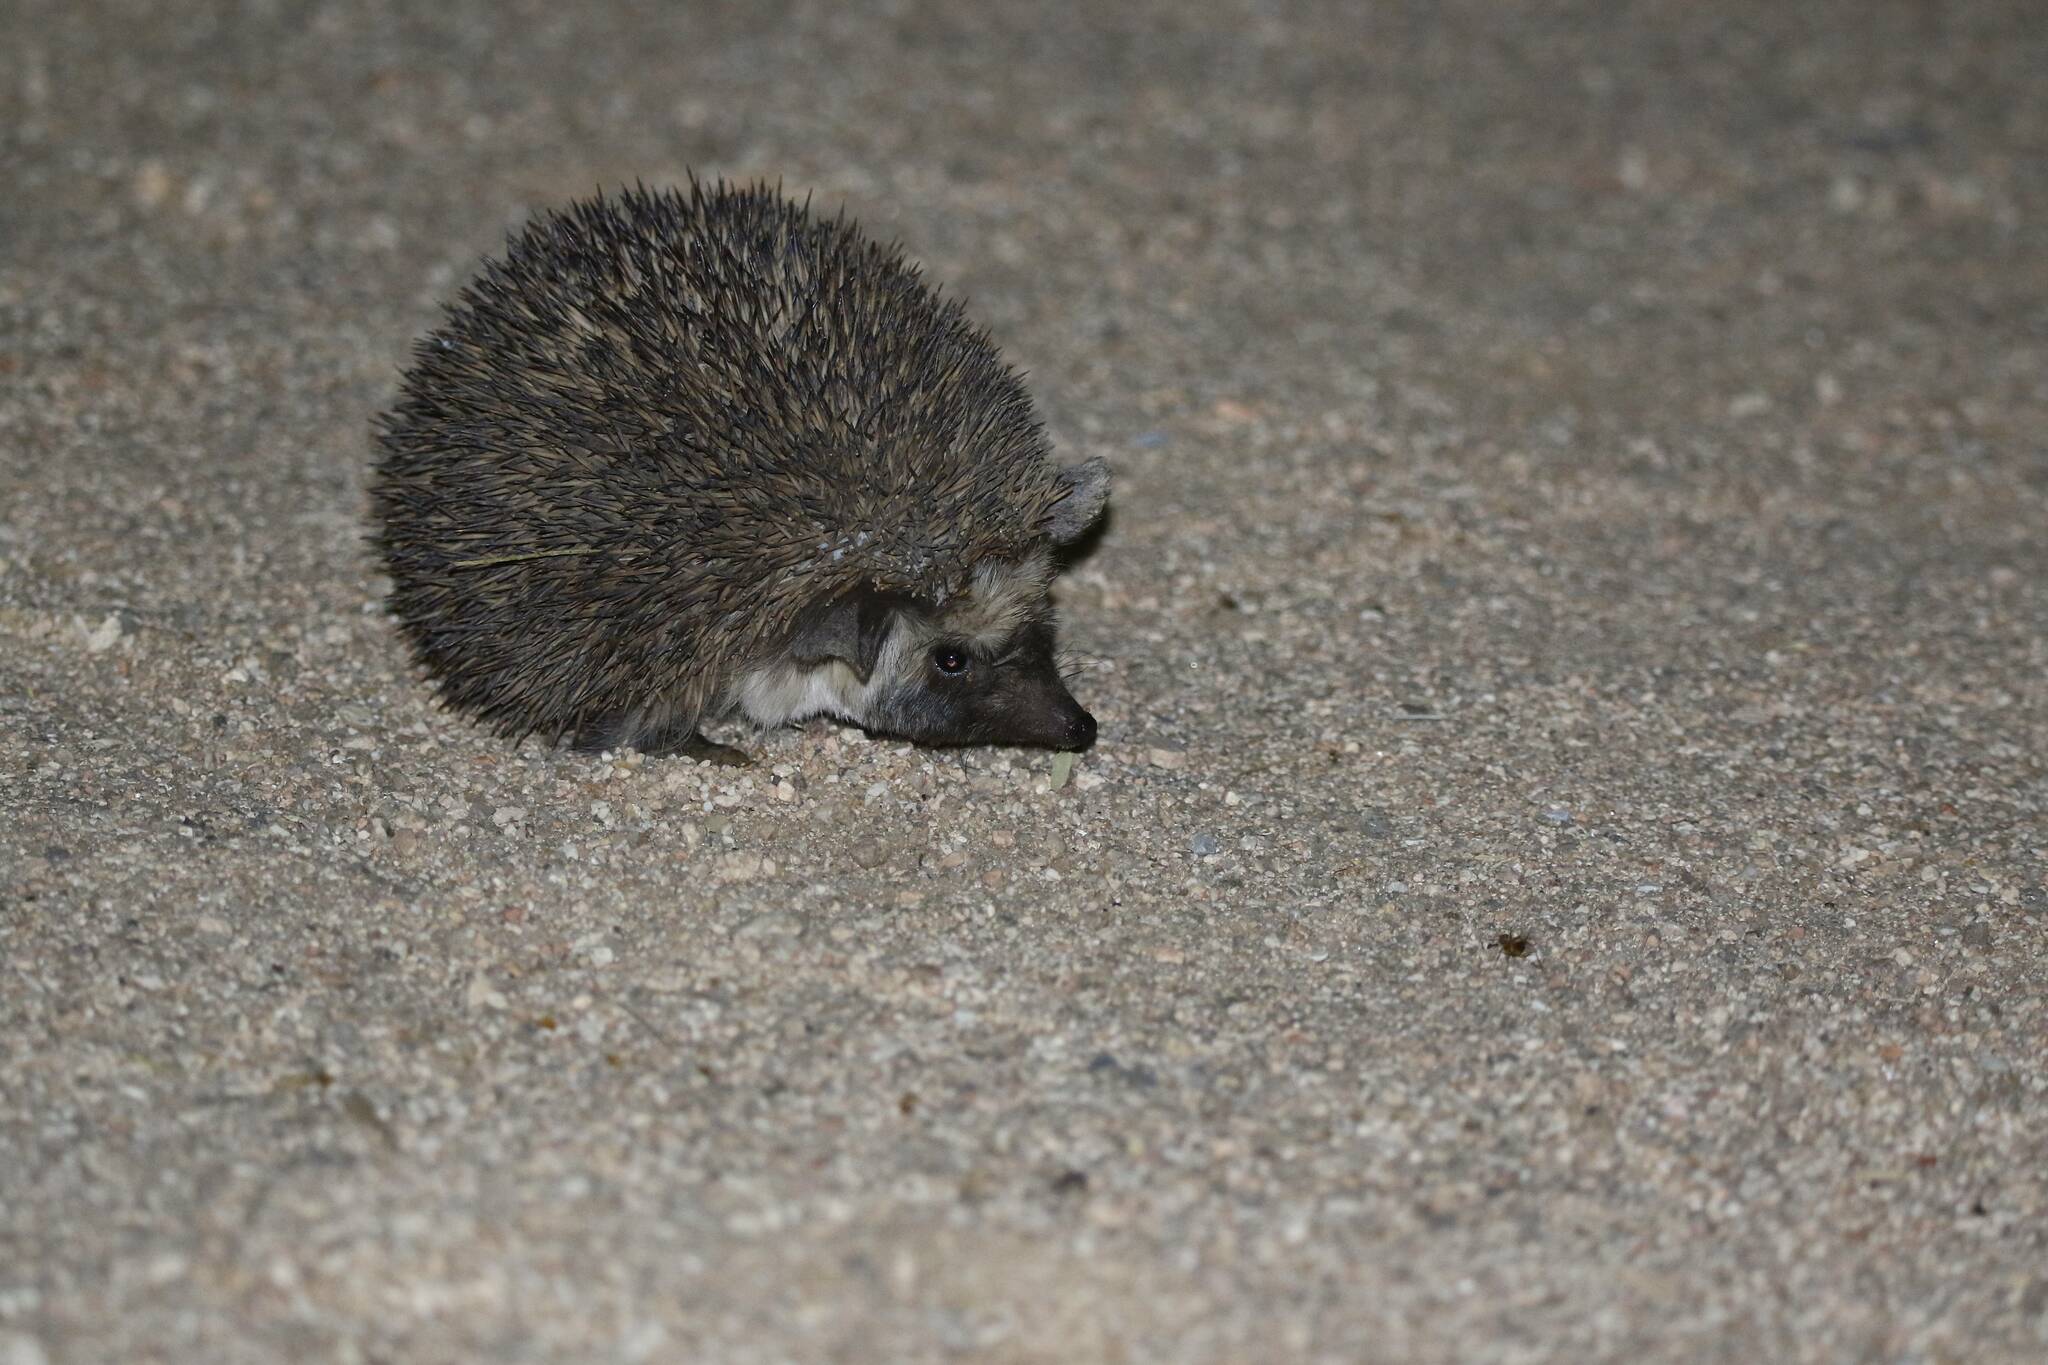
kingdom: Animalia
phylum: Chordata
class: Mammalia
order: Erinaceomorpha
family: Erinaceidae
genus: Paraechinus
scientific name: Paraechinus aethiopicus
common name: Desert hedgehog
